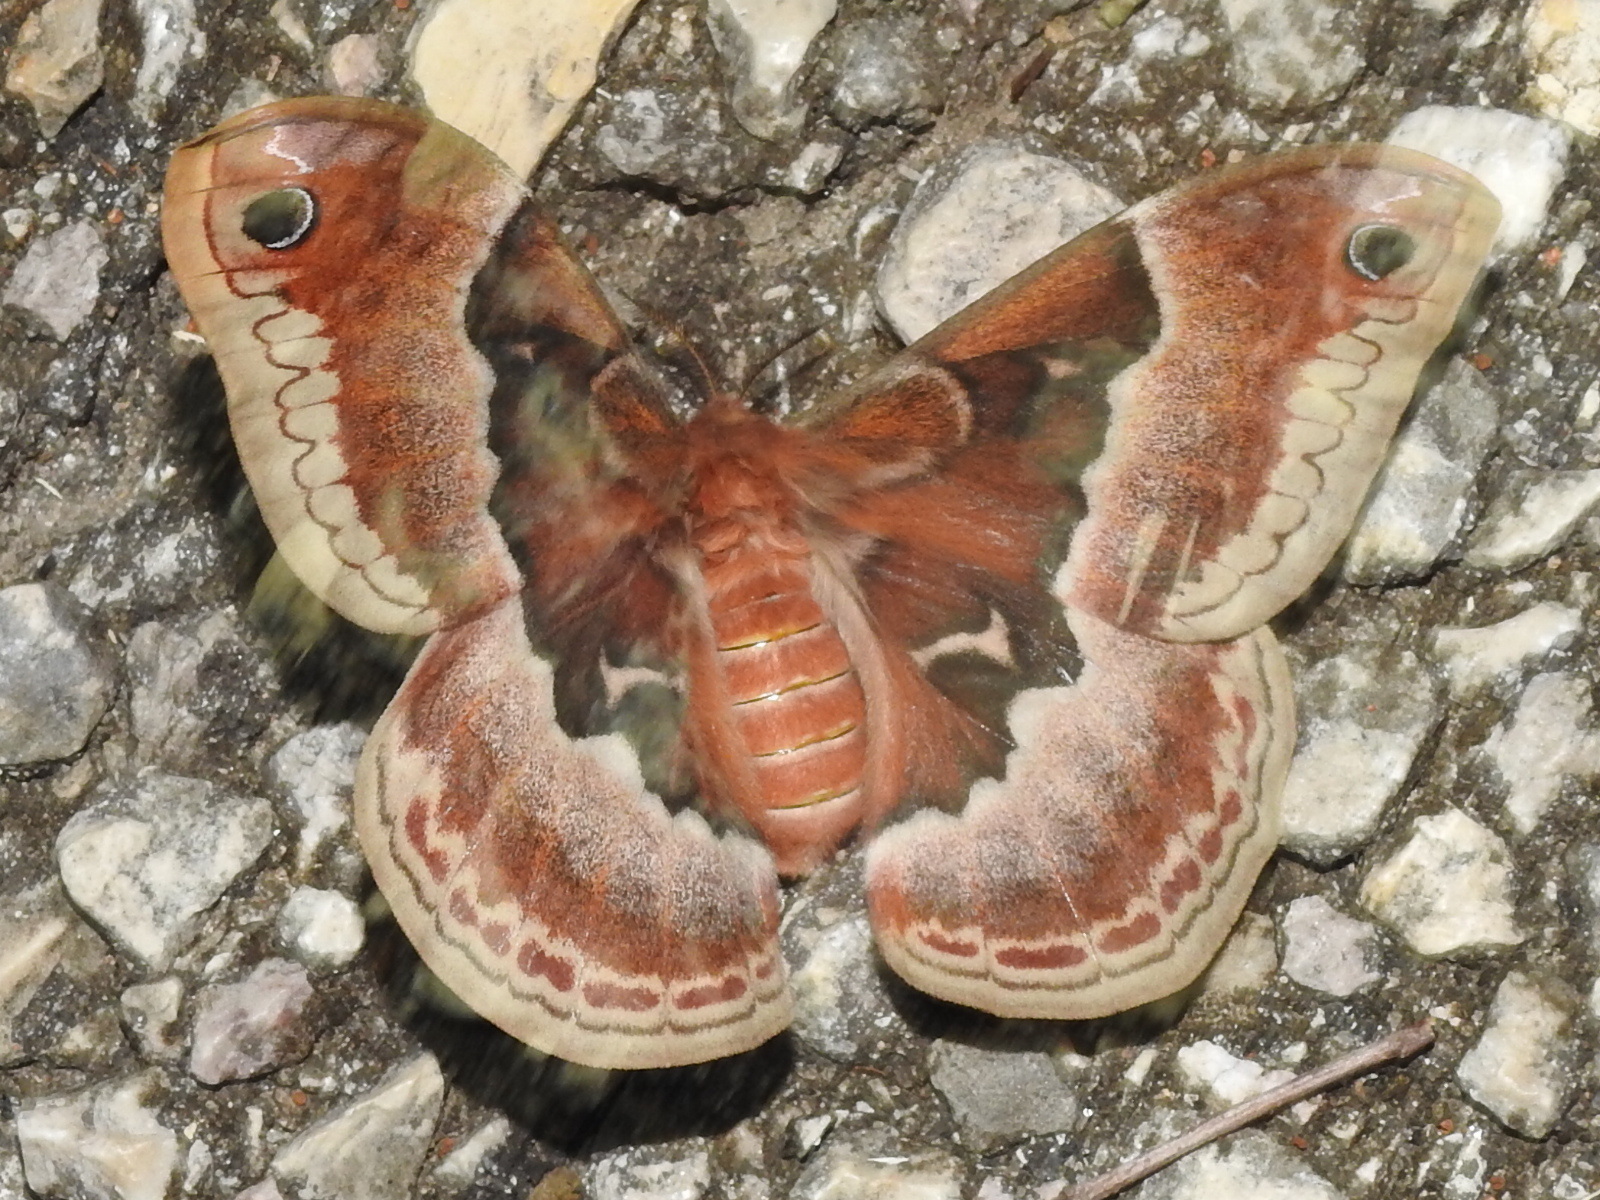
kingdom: Animalia
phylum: Arthropoda
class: Insecta
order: Lepidoptera
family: Saturniidae
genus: Callosamia
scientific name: Callosamia promethea
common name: Promethea silkmoth
